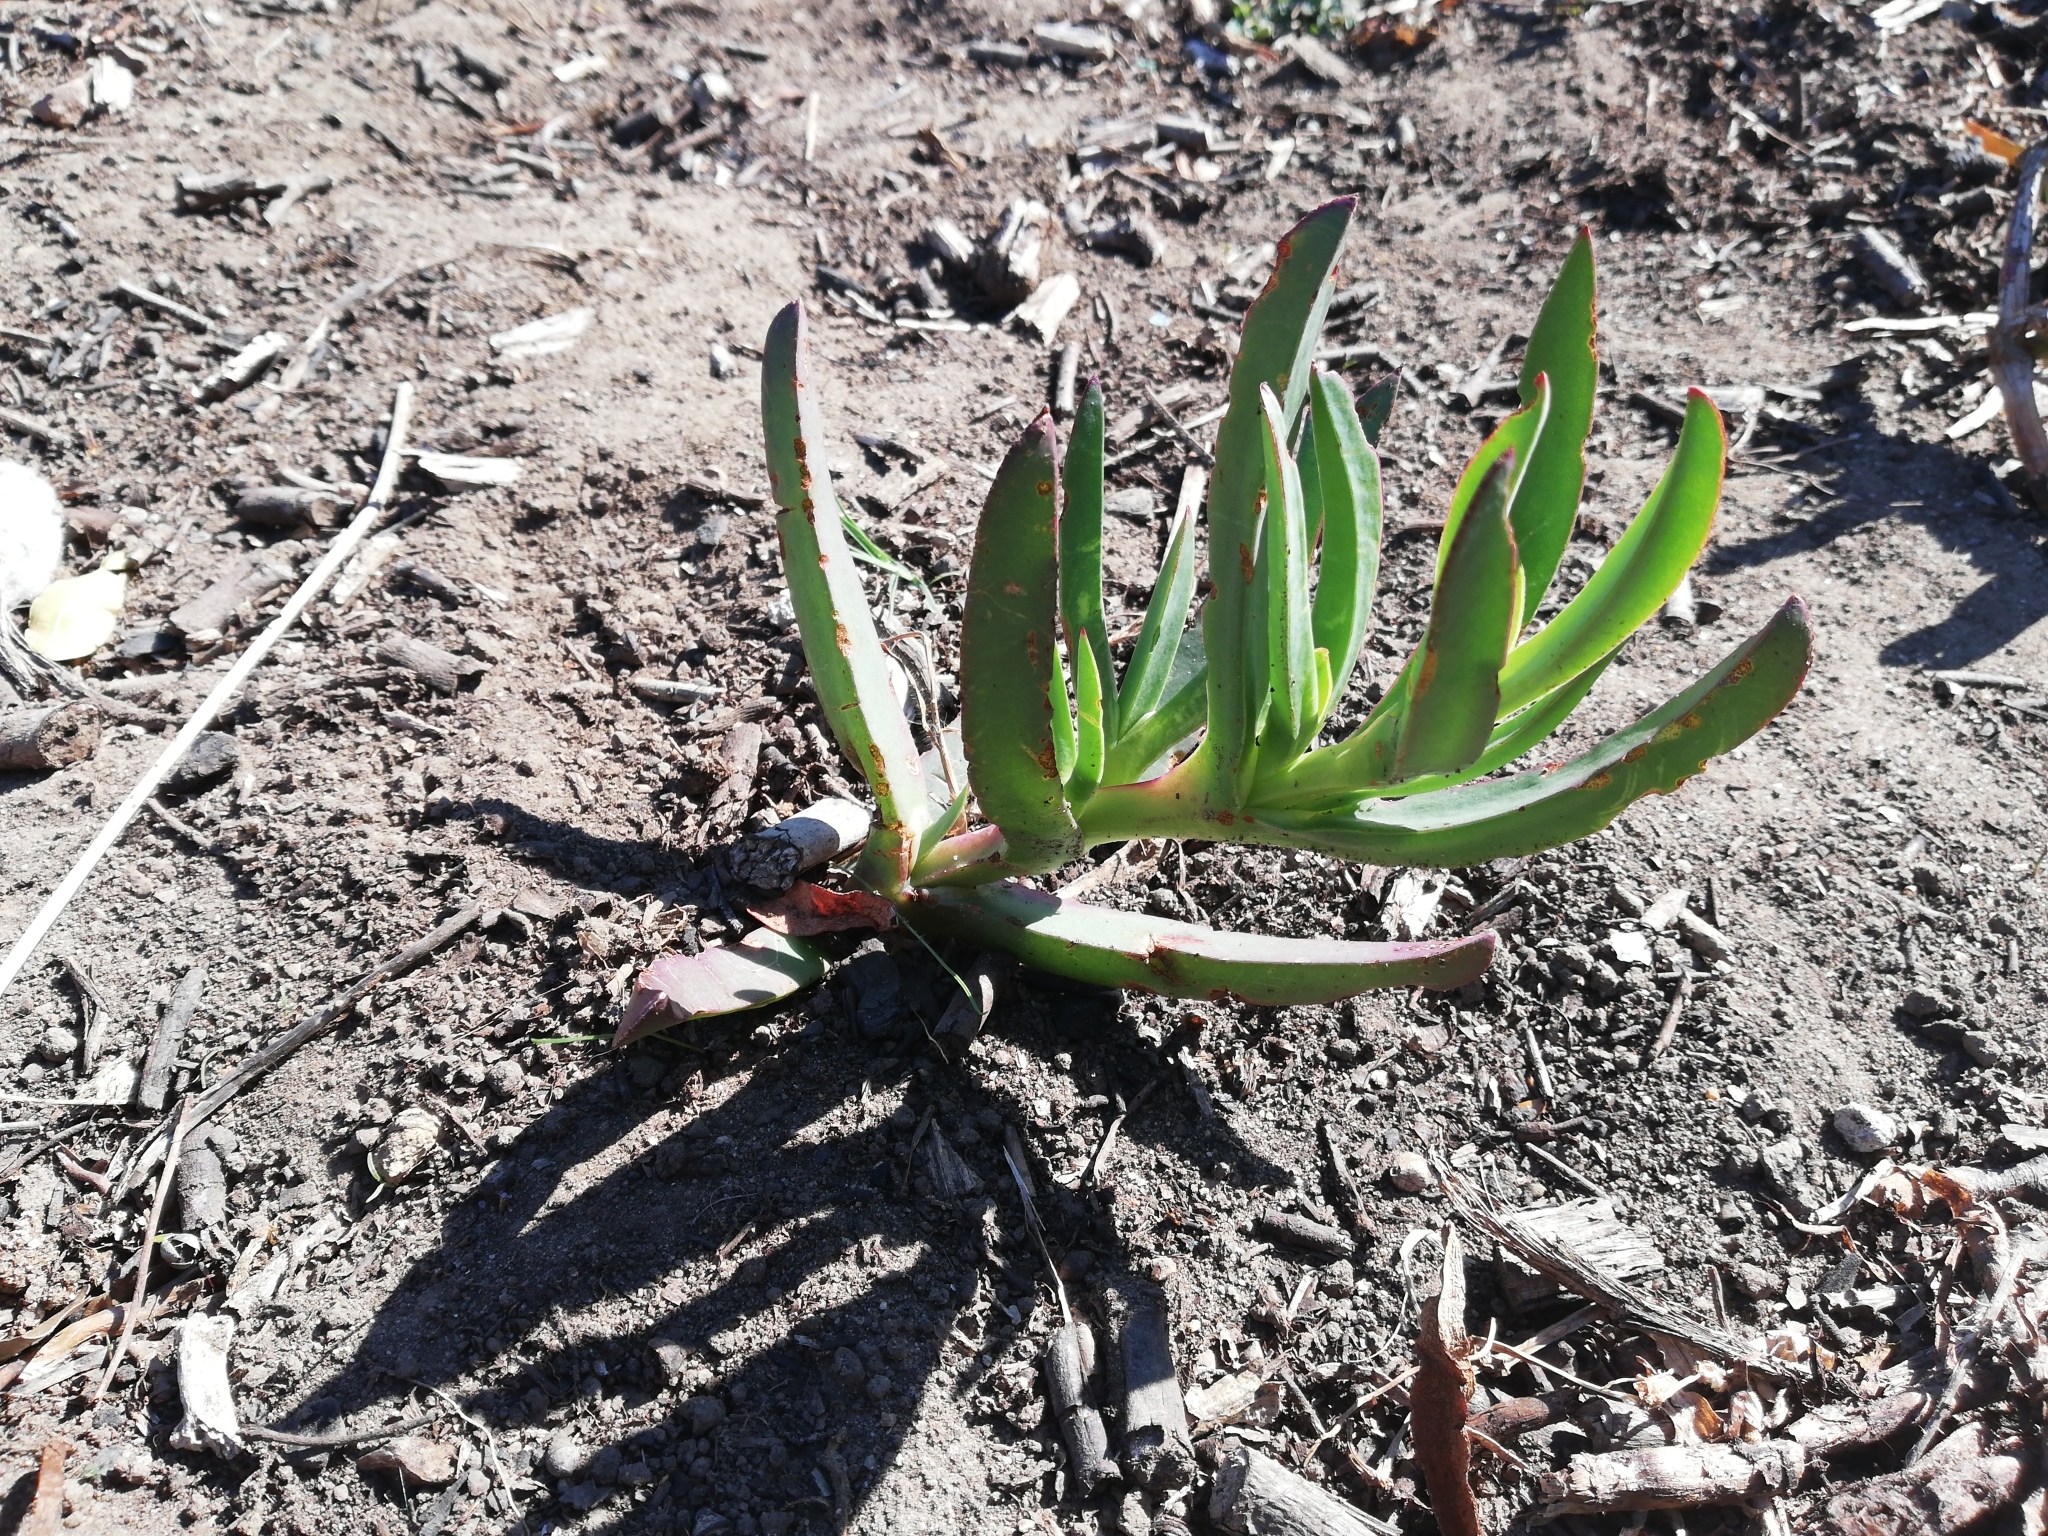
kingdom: Plantae
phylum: Tracheophyta
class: Magnoliopsida
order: Caryophyllales
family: Aizoaceae
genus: Carpobrotus
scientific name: Carpobrotus edulis
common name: Hottentot-fig
